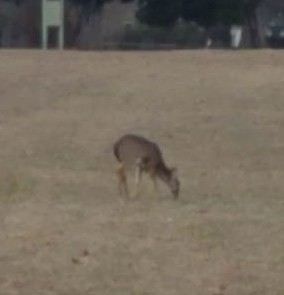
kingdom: Animalia
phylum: Chordata
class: Mammalia
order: Artiodactyla
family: Cervidae
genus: Odocoileus
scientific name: Odocoileus virginianus
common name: White-tailed deer
